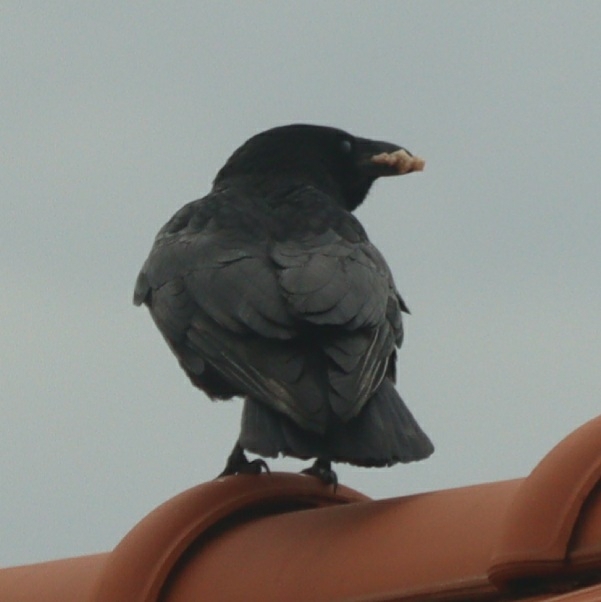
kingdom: Animalia
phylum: Chordata
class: Aves
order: Passeriformes
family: Corvidae
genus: Corvus
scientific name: Corvus corone
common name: Carrion crow
